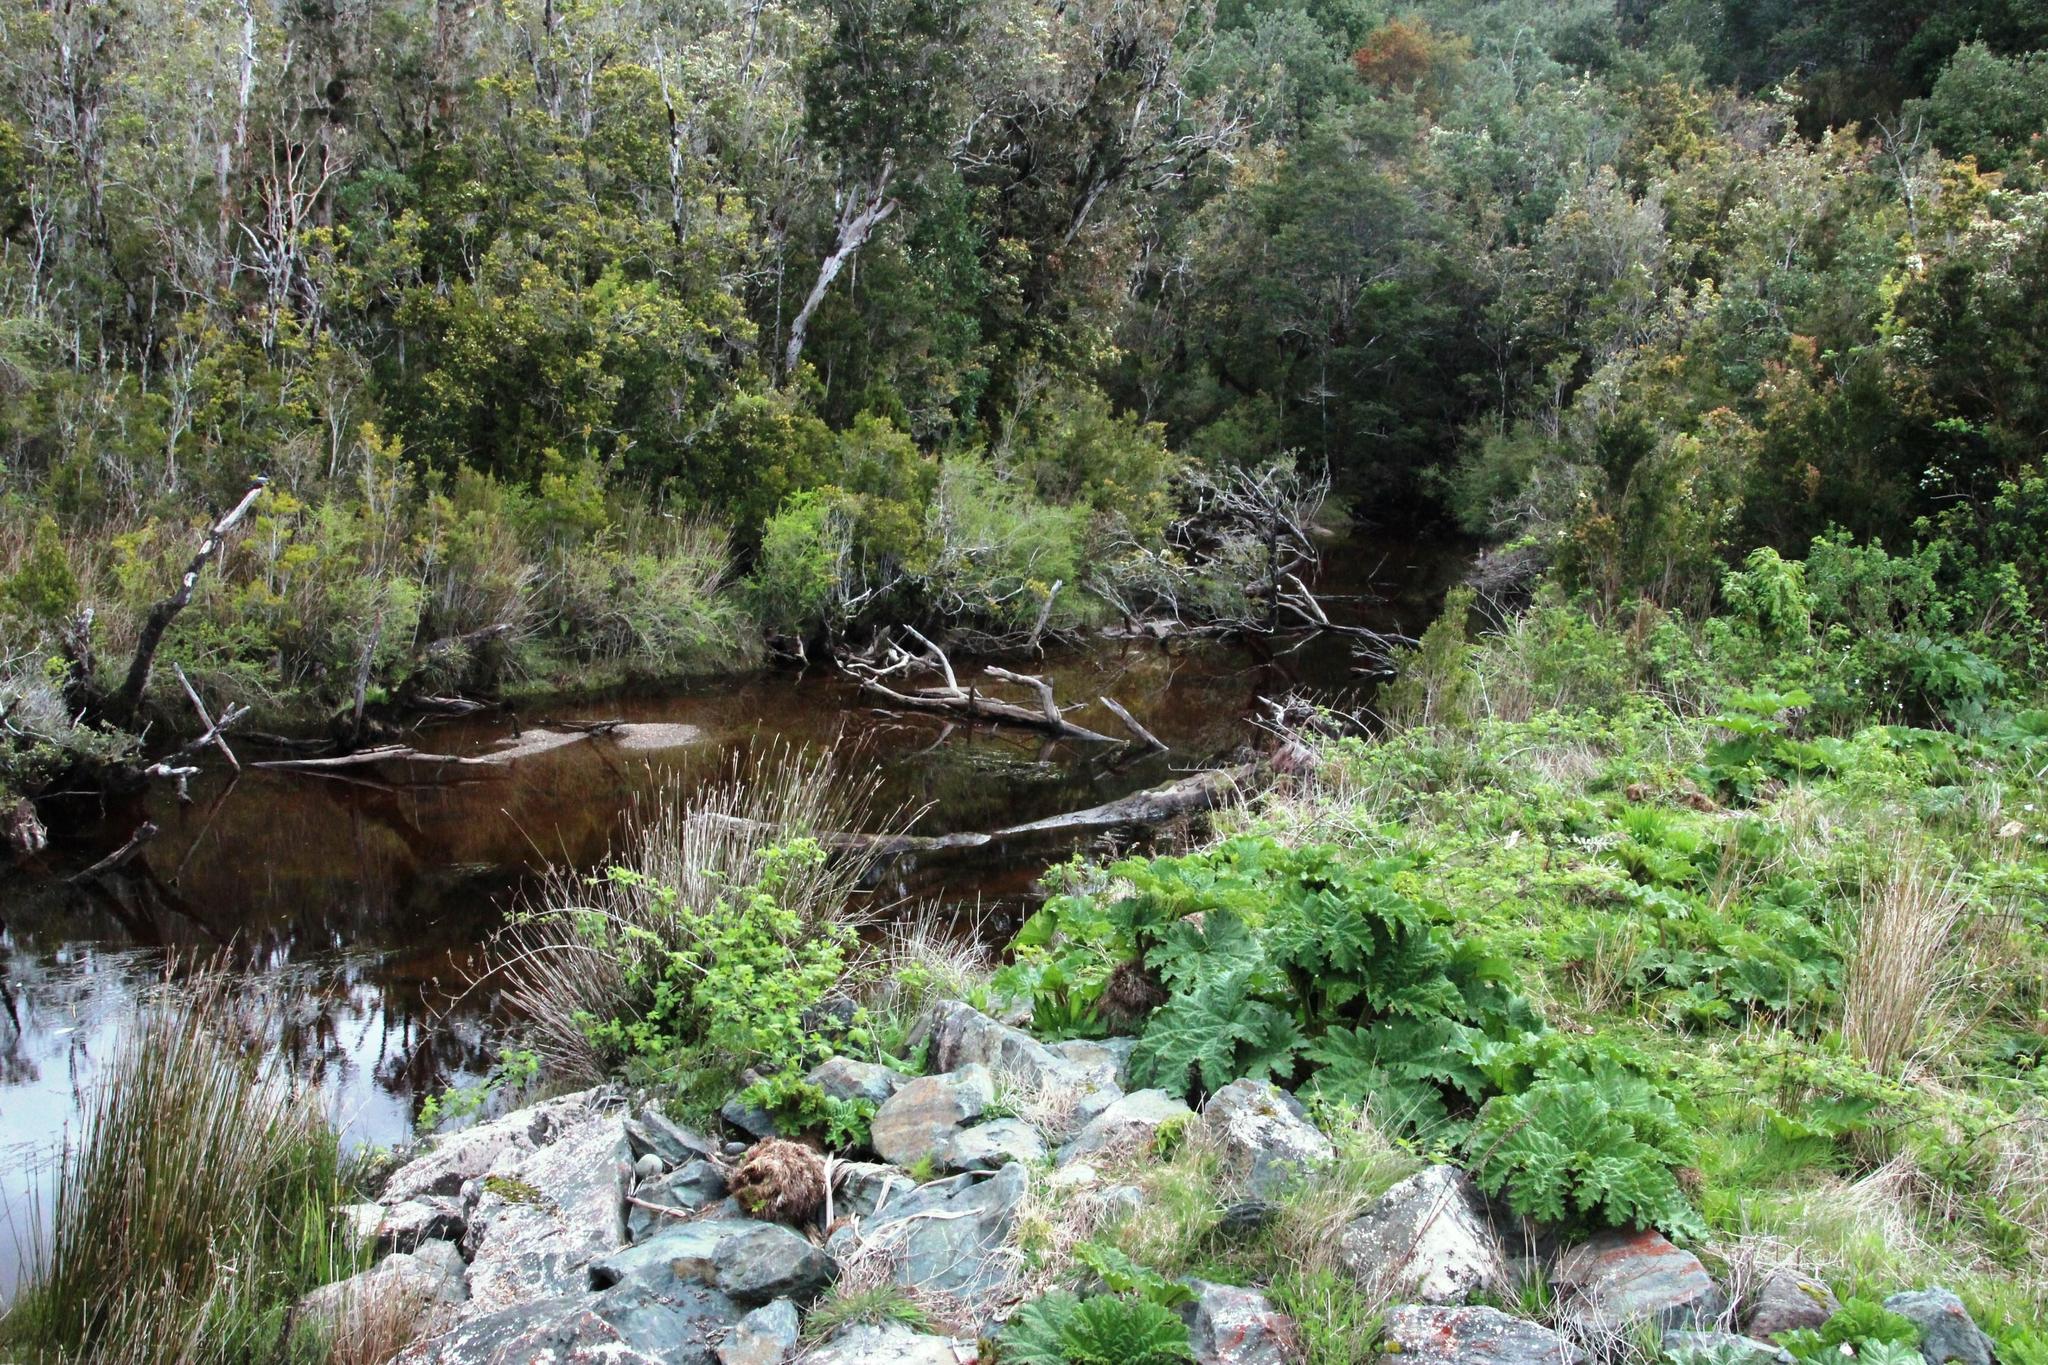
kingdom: Plantae
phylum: Tracheophyta
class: Magnoliopsida
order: Gunnerales
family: Gunneraceae
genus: Gunnera
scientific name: Gunnera tinctoria
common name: Giant-rhubarb
